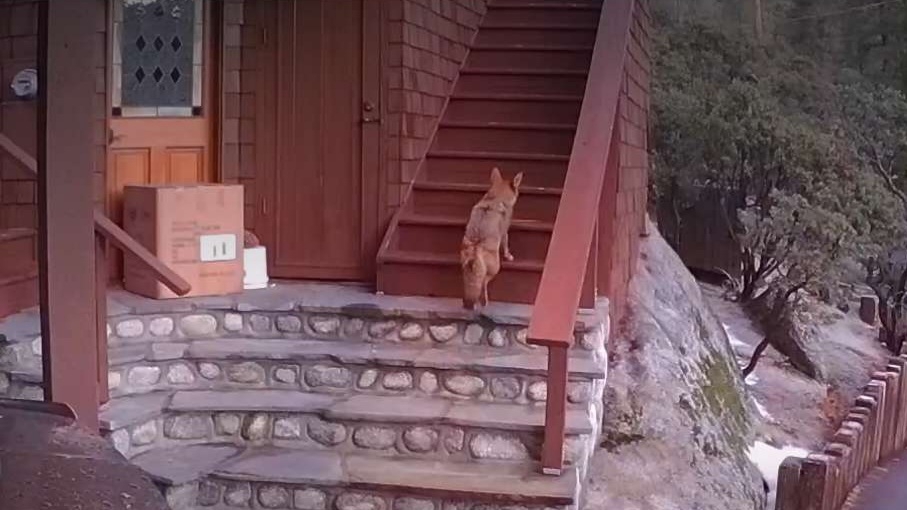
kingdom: Animalia
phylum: Chordata
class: Mammalia
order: Carnivora
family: Canidae
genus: Canis
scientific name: Canis latrans
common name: Coyote
